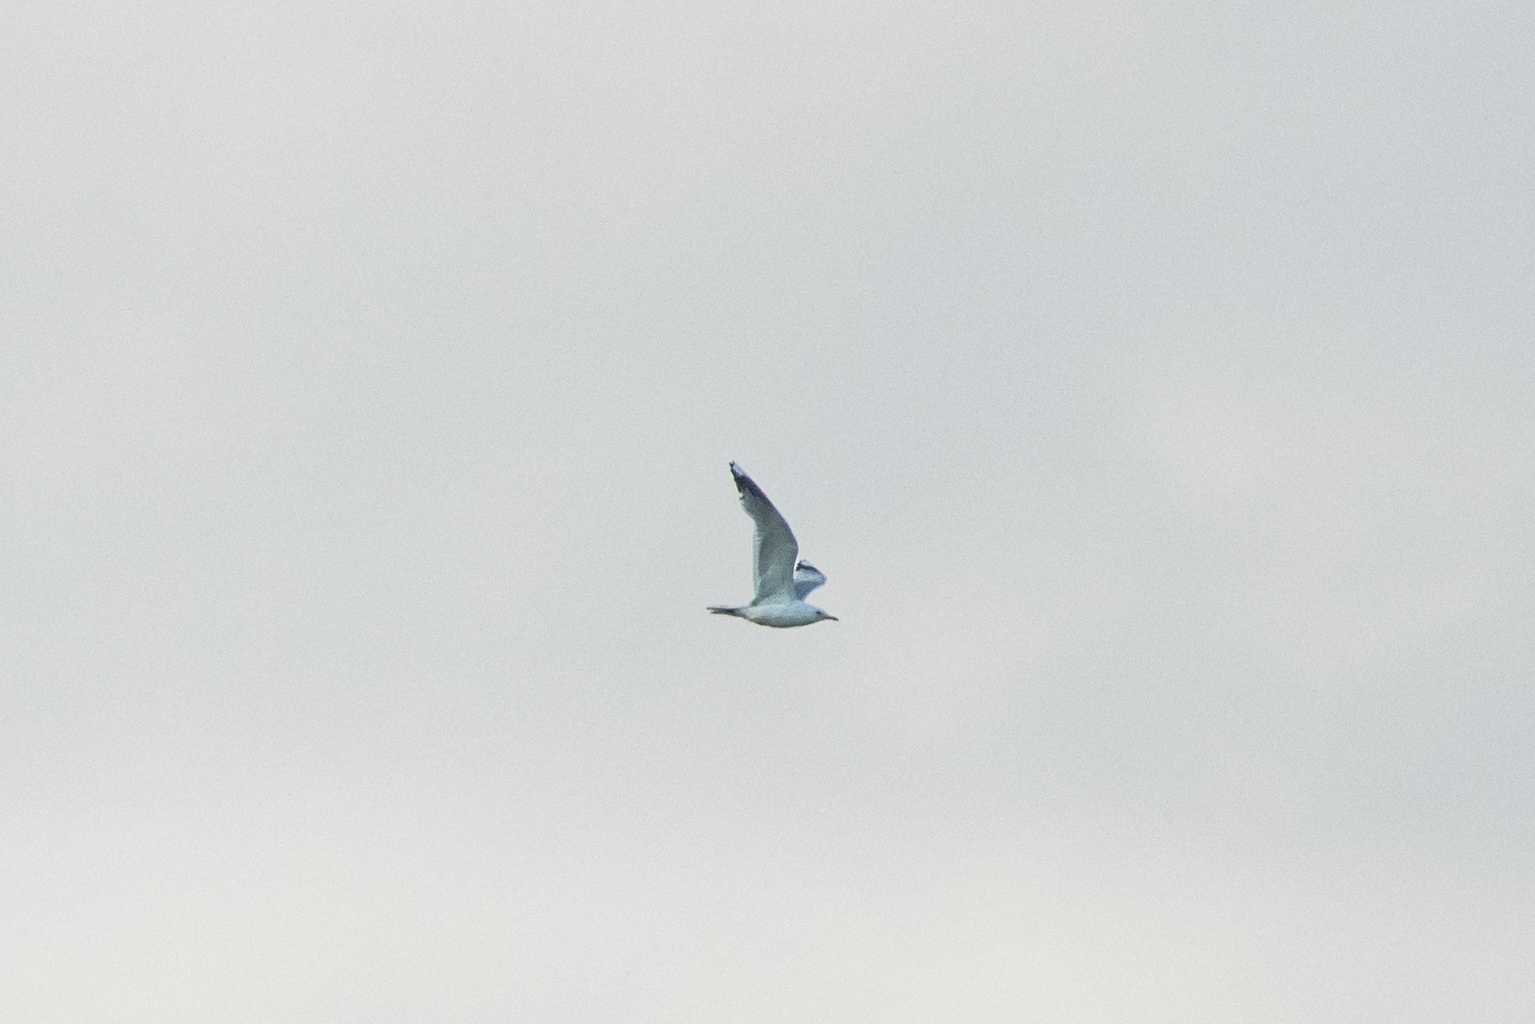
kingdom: Animalia
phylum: Chordata
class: Aves
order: Charadriiformes
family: Laridae
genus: Larus
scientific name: Larus canus
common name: Mew gull
